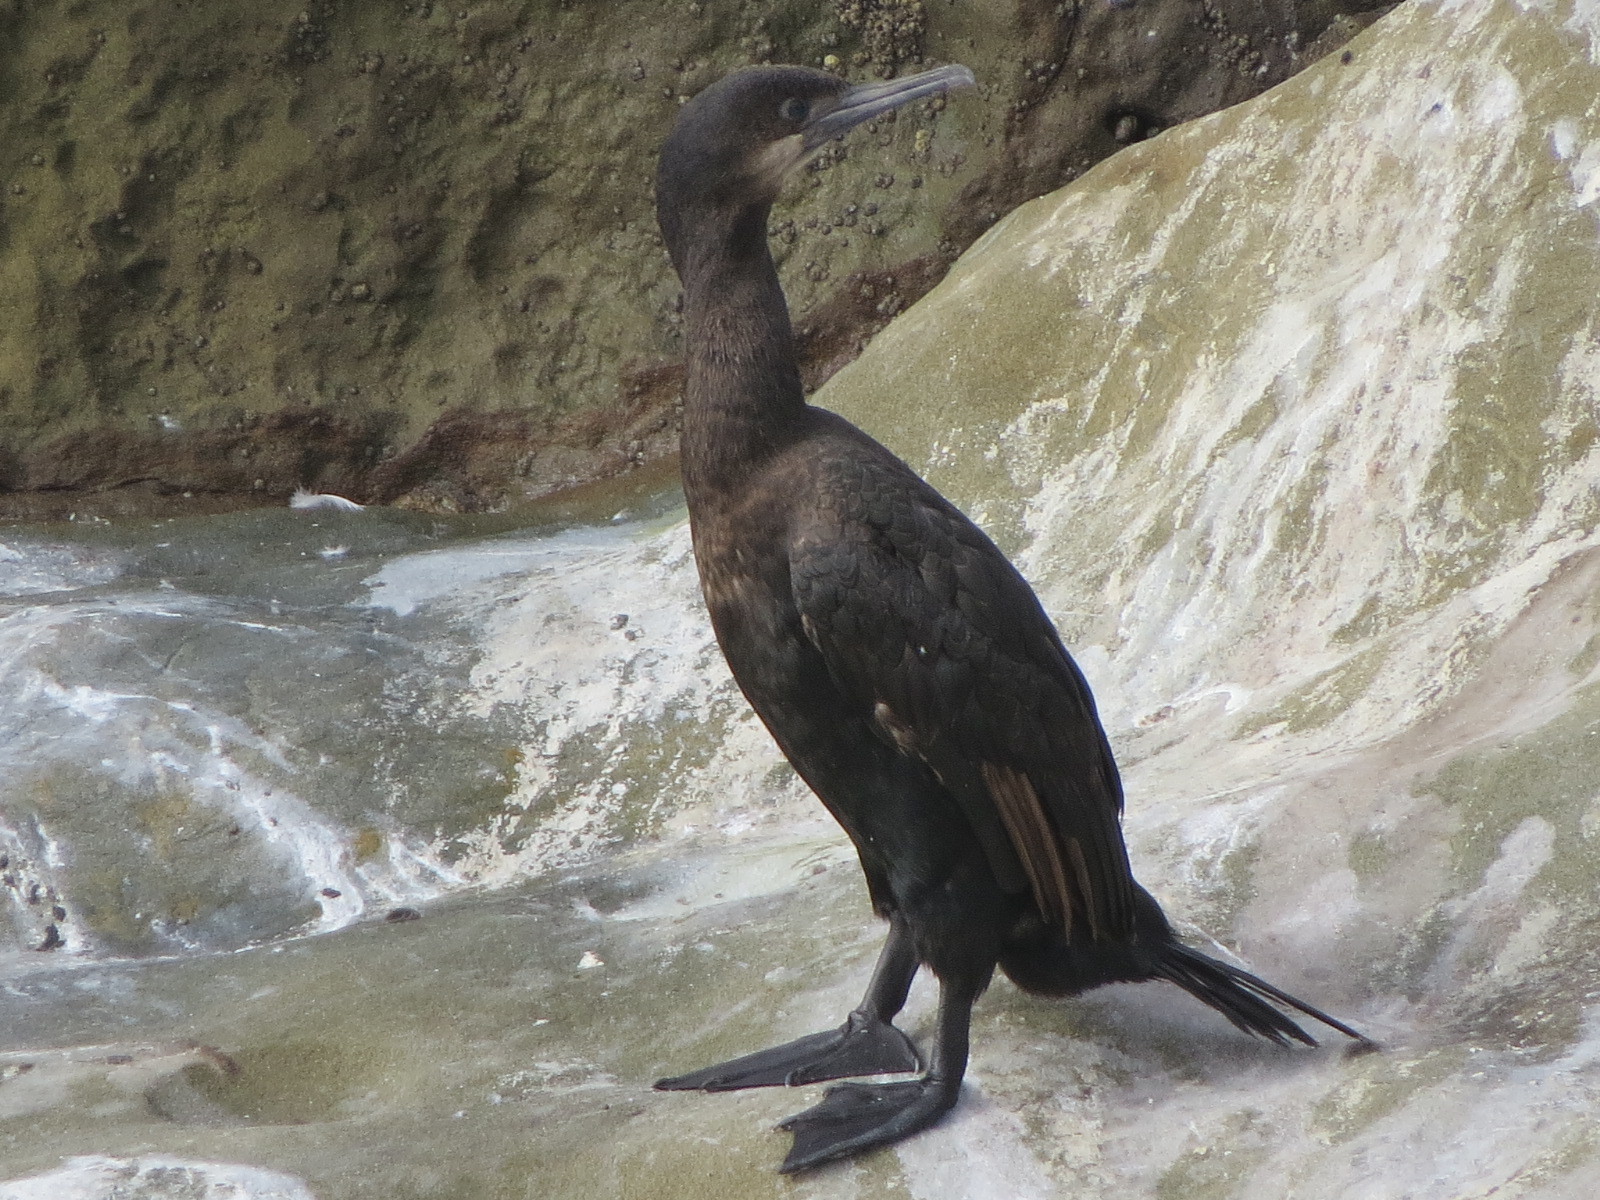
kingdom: Animalia
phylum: Chordata
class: Aves
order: Suliformes
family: Phalacrocoracidae
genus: Urile
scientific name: Urile penicillatus
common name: Brandt's cormorant
